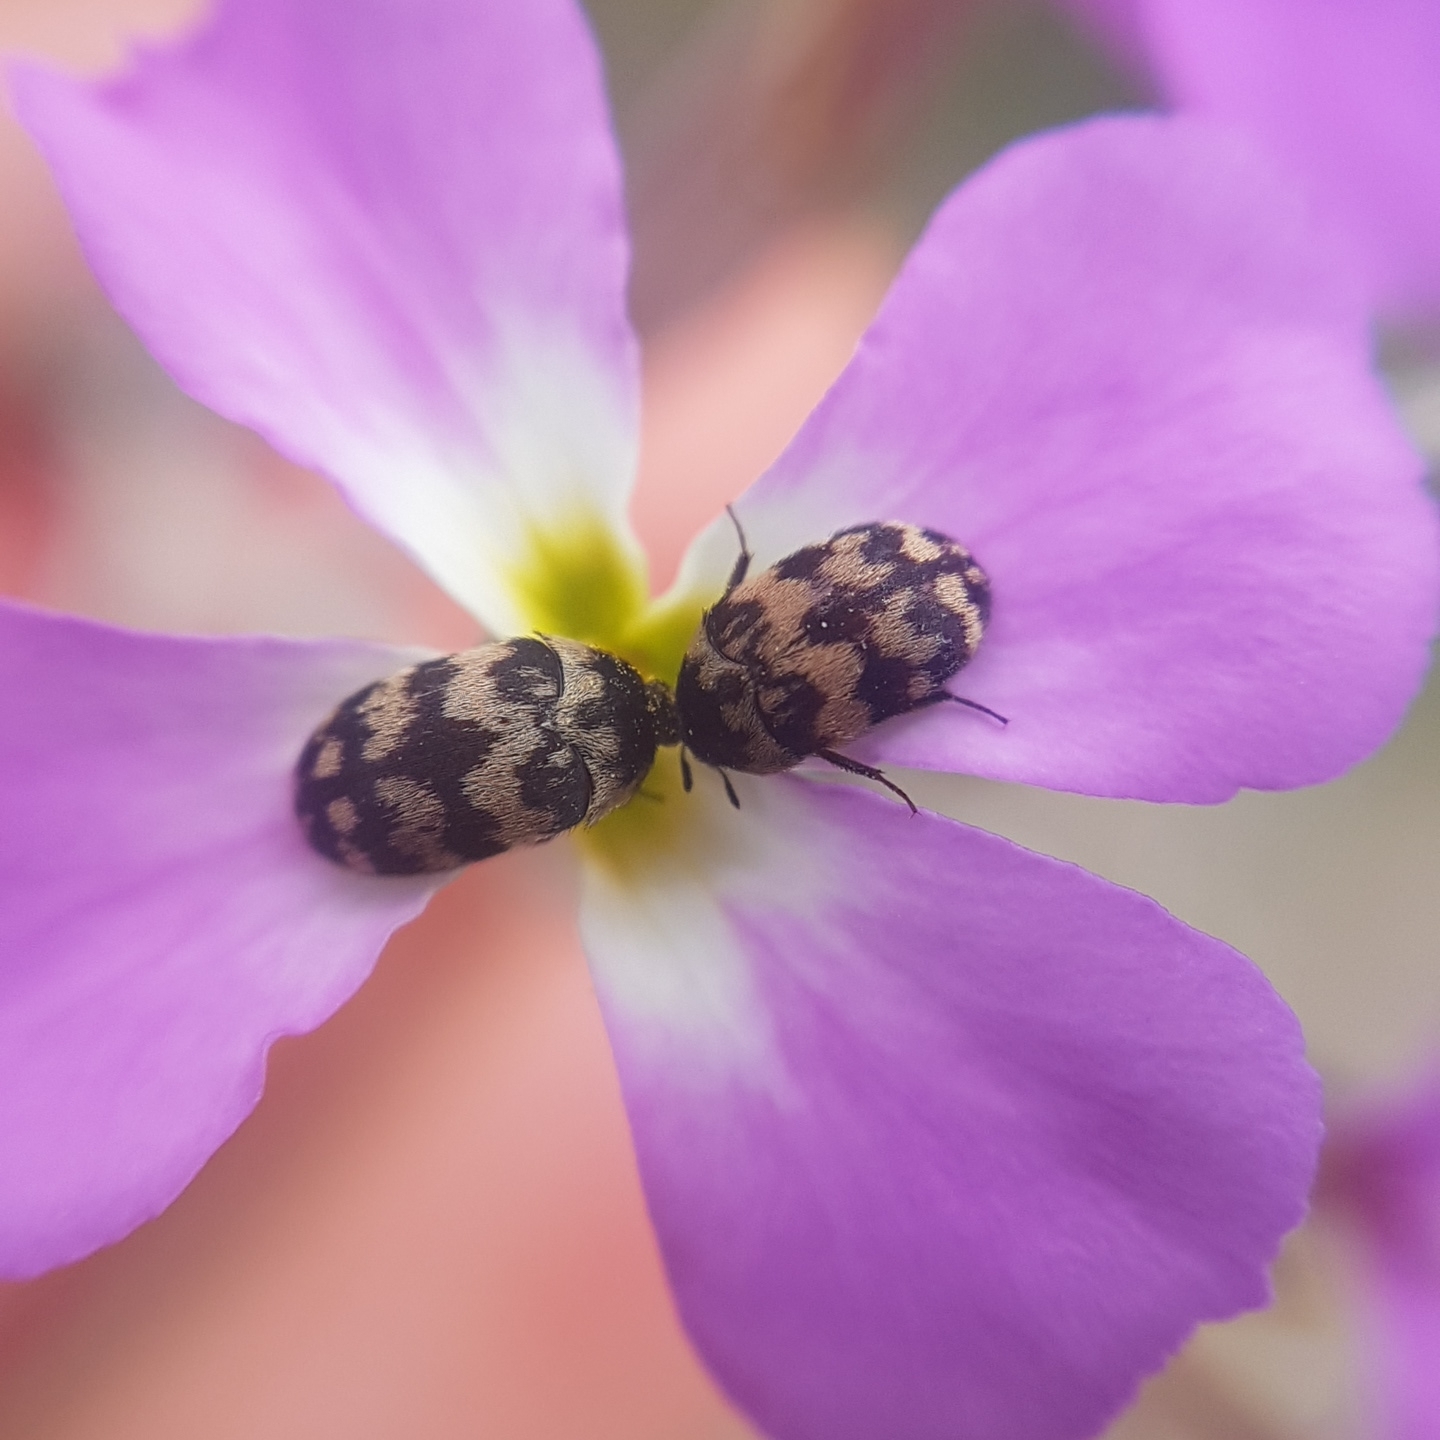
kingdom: Animalia
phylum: Arthropoda
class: Insecta
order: Coleoptera
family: Dermestidae
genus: Attagenus
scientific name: Attagenus trifasciatus
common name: Carpet beetle
